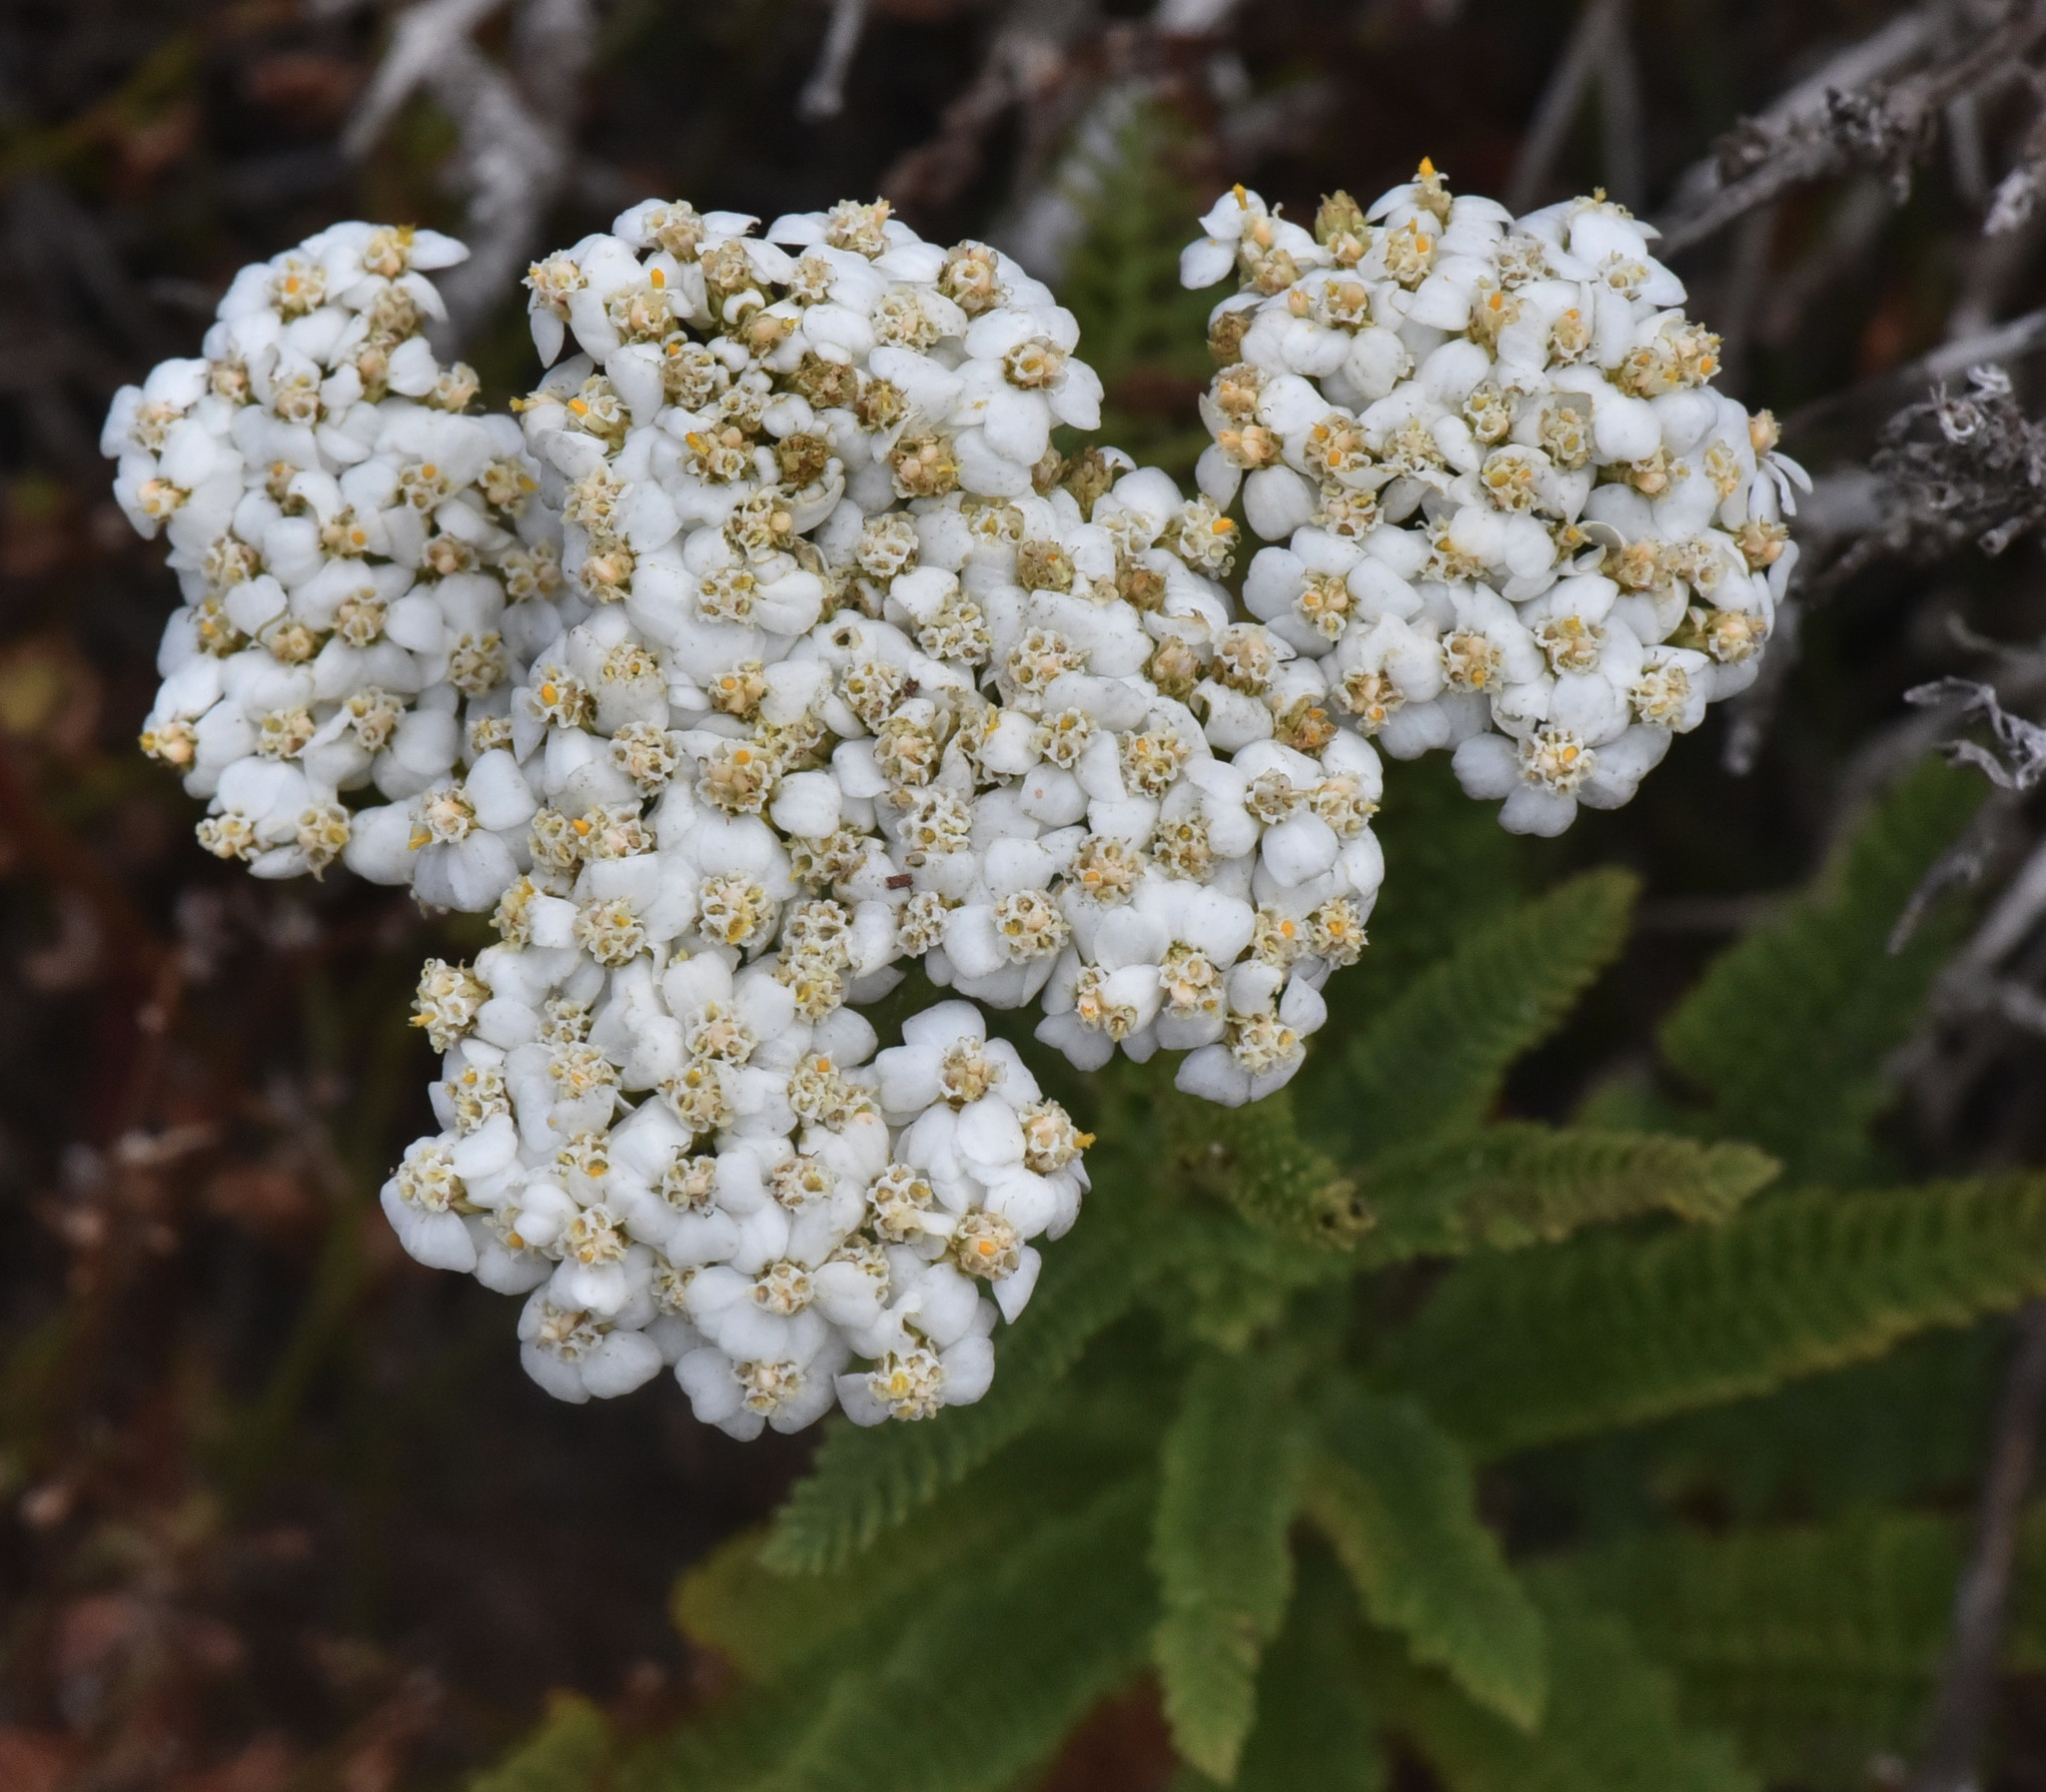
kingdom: Plantae
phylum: Tracheophyta
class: Magnoliopsida
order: Asterales
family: Asteraceae
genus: Achillea
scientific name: Achillea millefolium
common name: Yarrow
